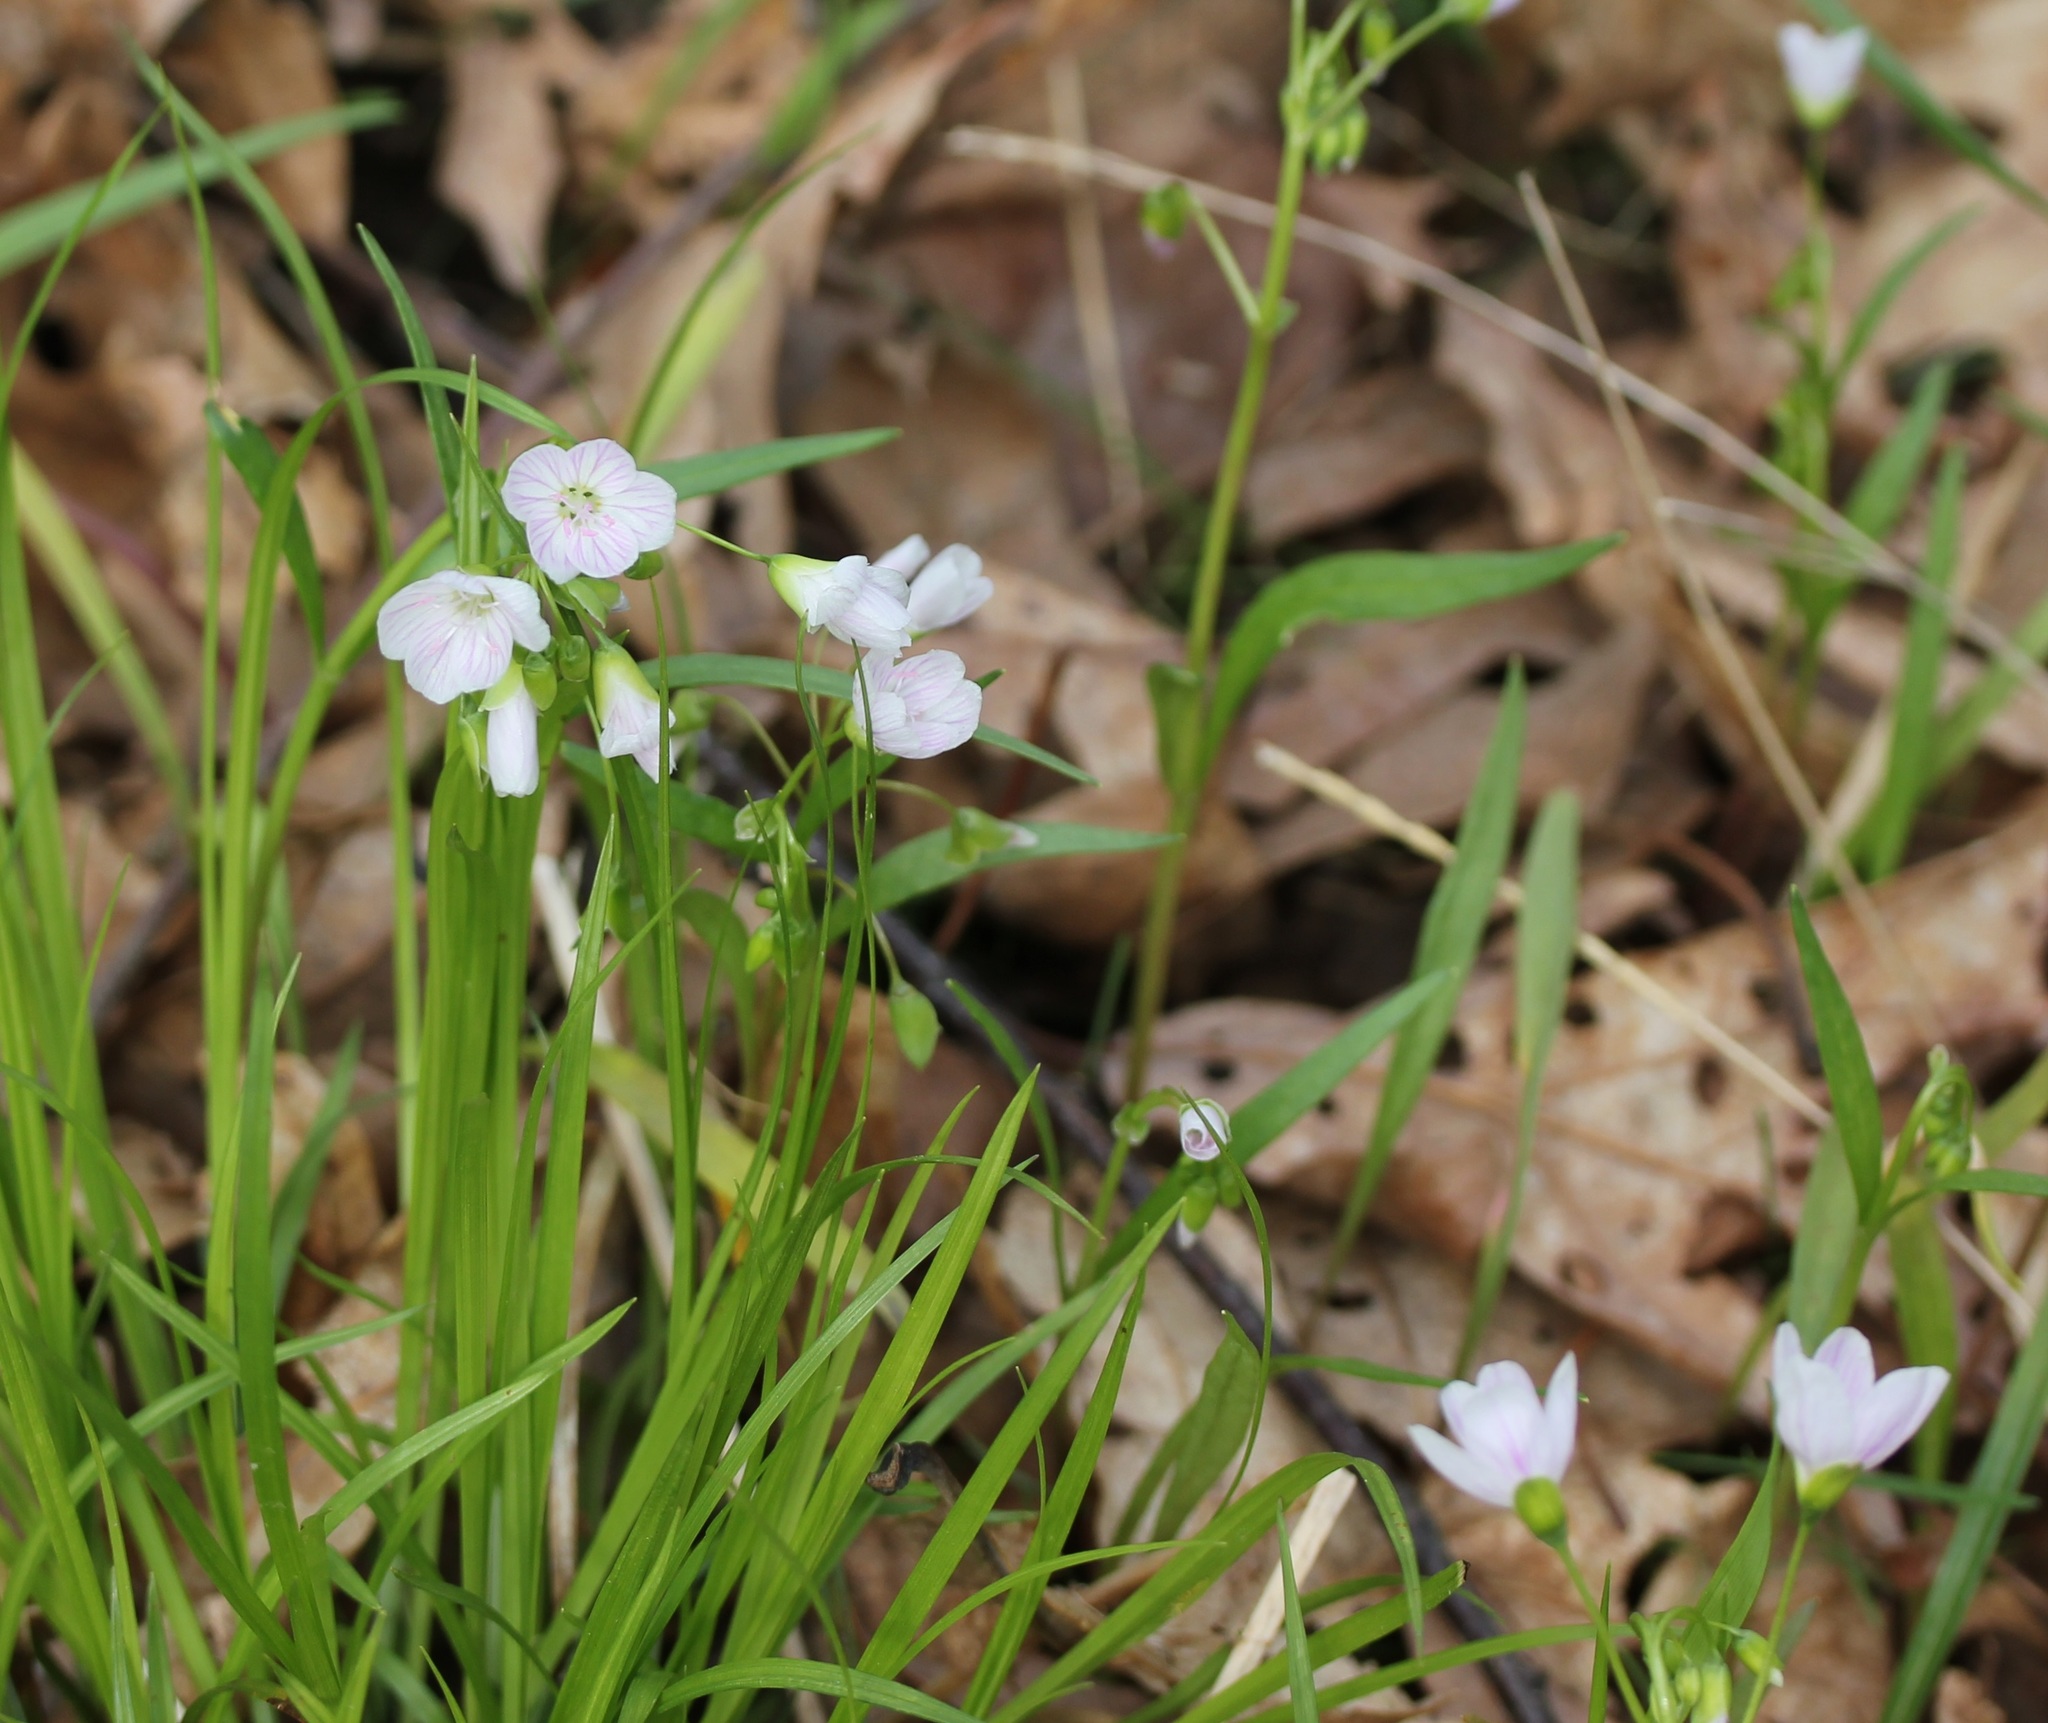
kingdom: Plantae
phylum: Tracheophyta
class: Magnoliopsida
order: Caryophyllales
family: Montiaceae
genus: Claytonia
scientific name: Claytonia virginica
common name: Virginia springbeauty
